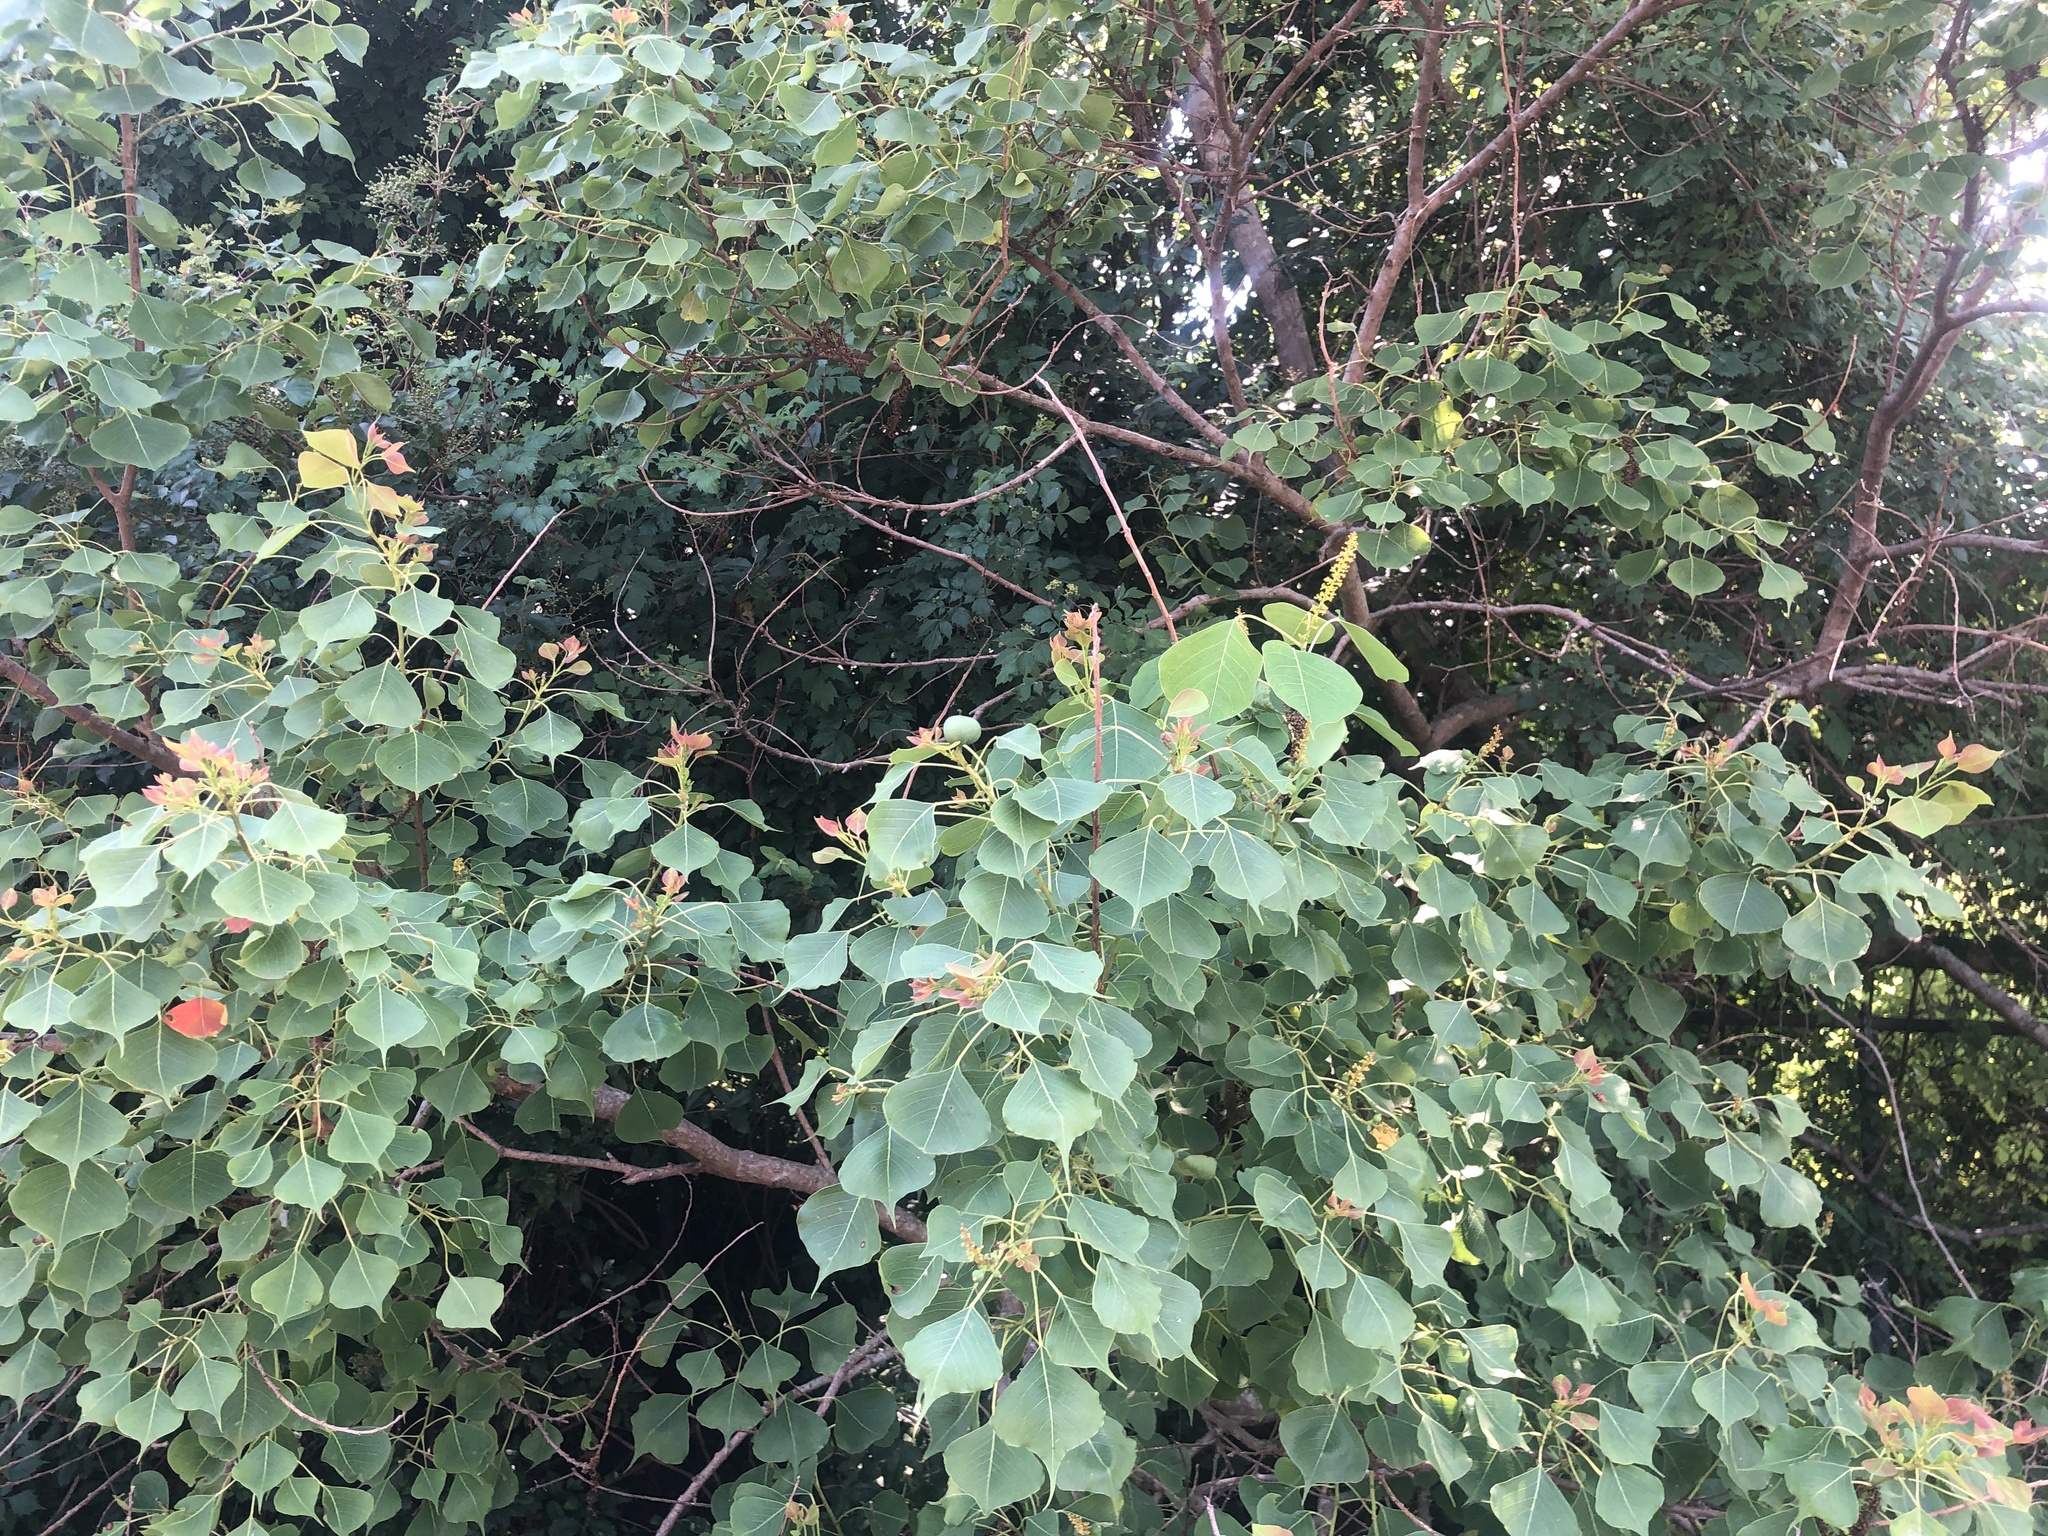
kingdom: Plantae
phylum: Tracheophyta
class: Magnoliopsida
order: Malpighiales
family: Euphorbiaceae
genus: Triadica
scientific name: Triadica sebifera
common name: Chinese tallow
